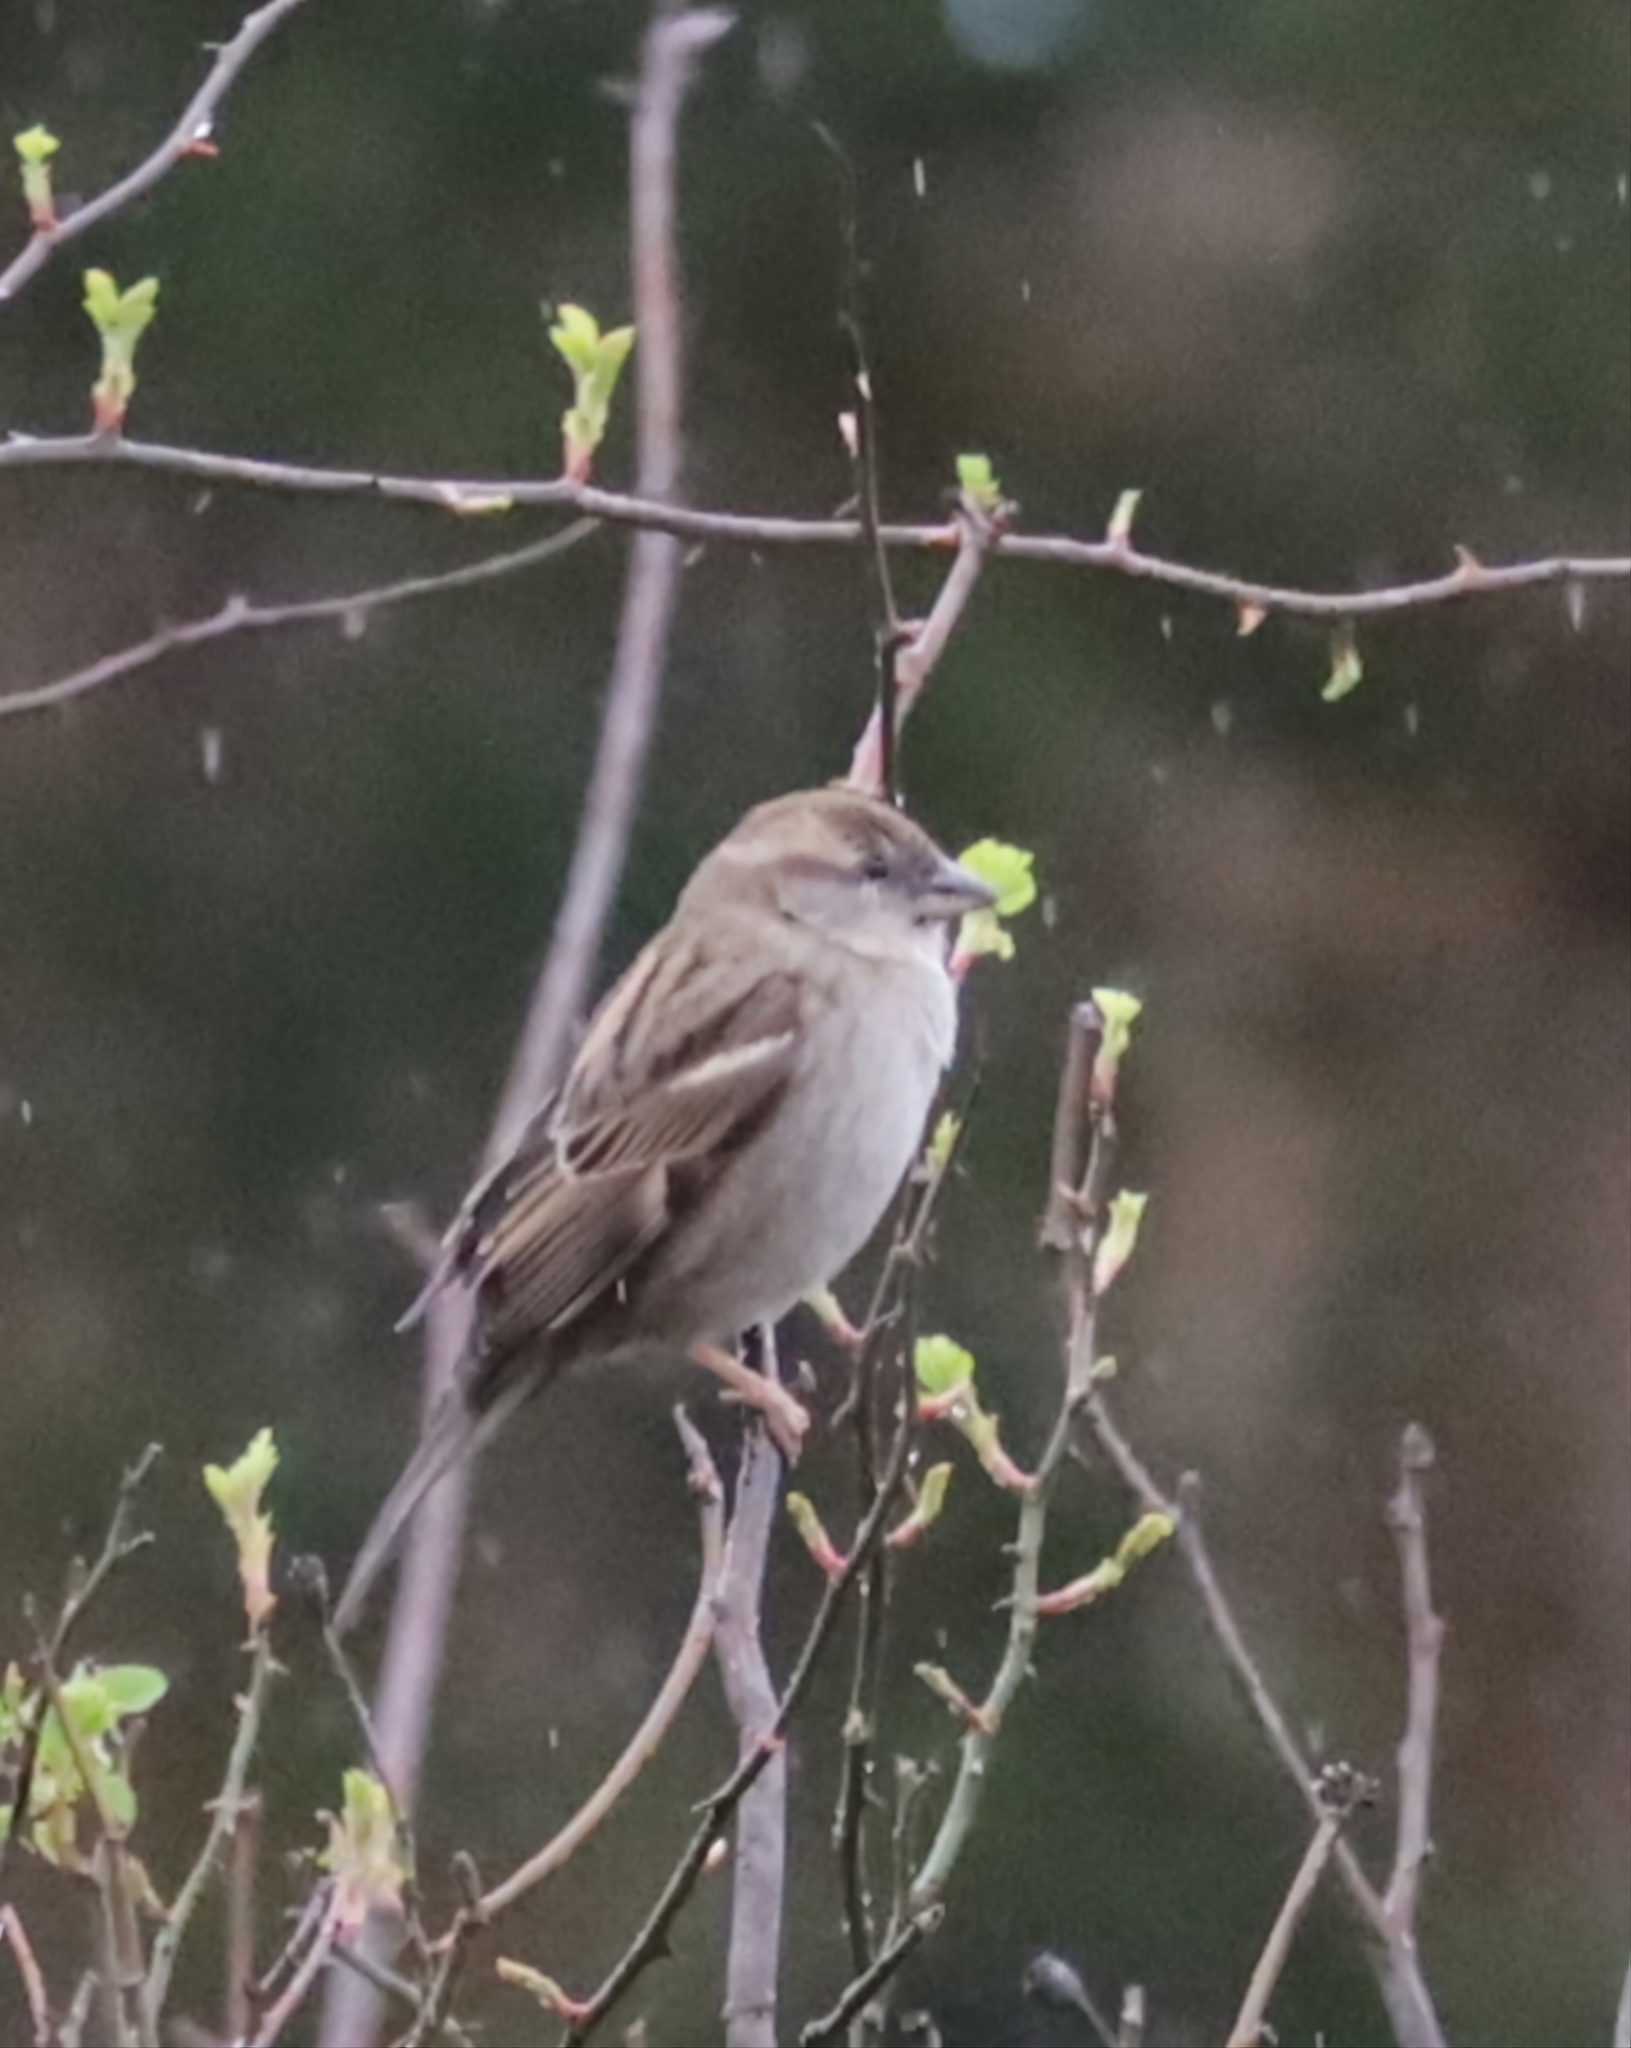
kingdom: Animalia
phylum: Chordata
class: Aves
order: Passeriformes
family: Passeridae
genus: Passer
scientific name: Passer domesticus
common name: House sparrow
